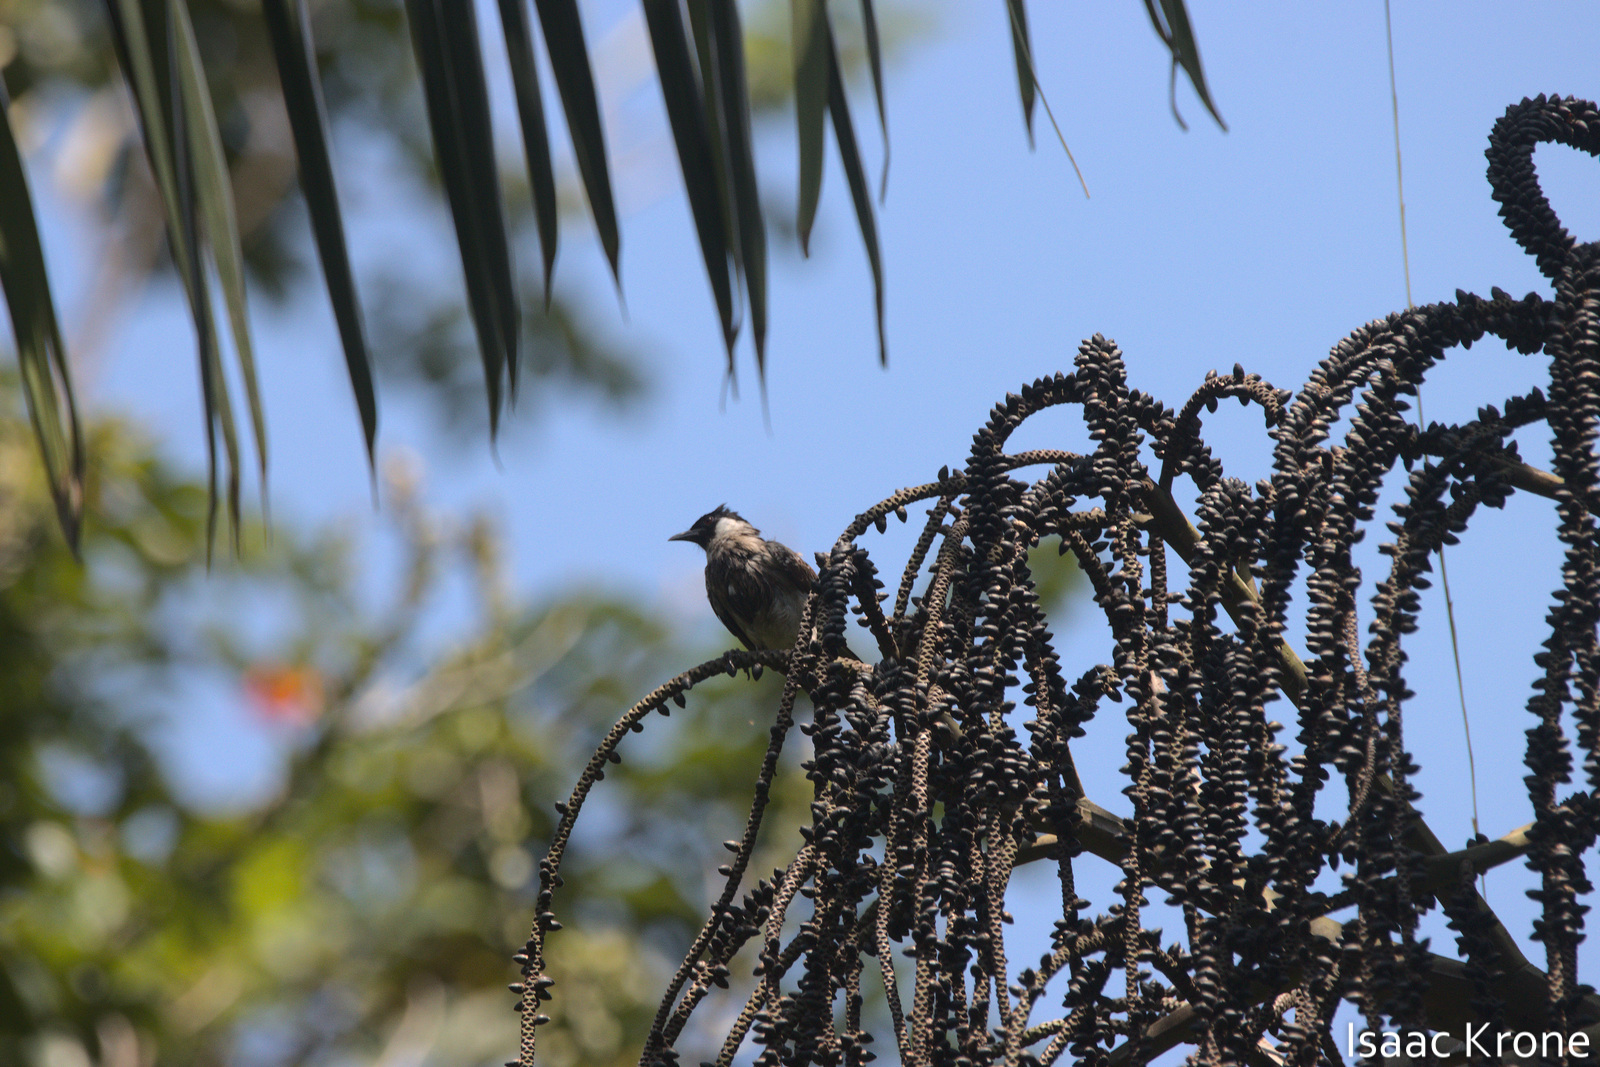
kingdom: Animalia
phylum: Chordata
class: Aves
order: Passeriformes
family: Pycnonotidae
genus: Pycnonotus
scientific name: Pycnonotus aurigaster
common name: Sooty-headed bulbul
